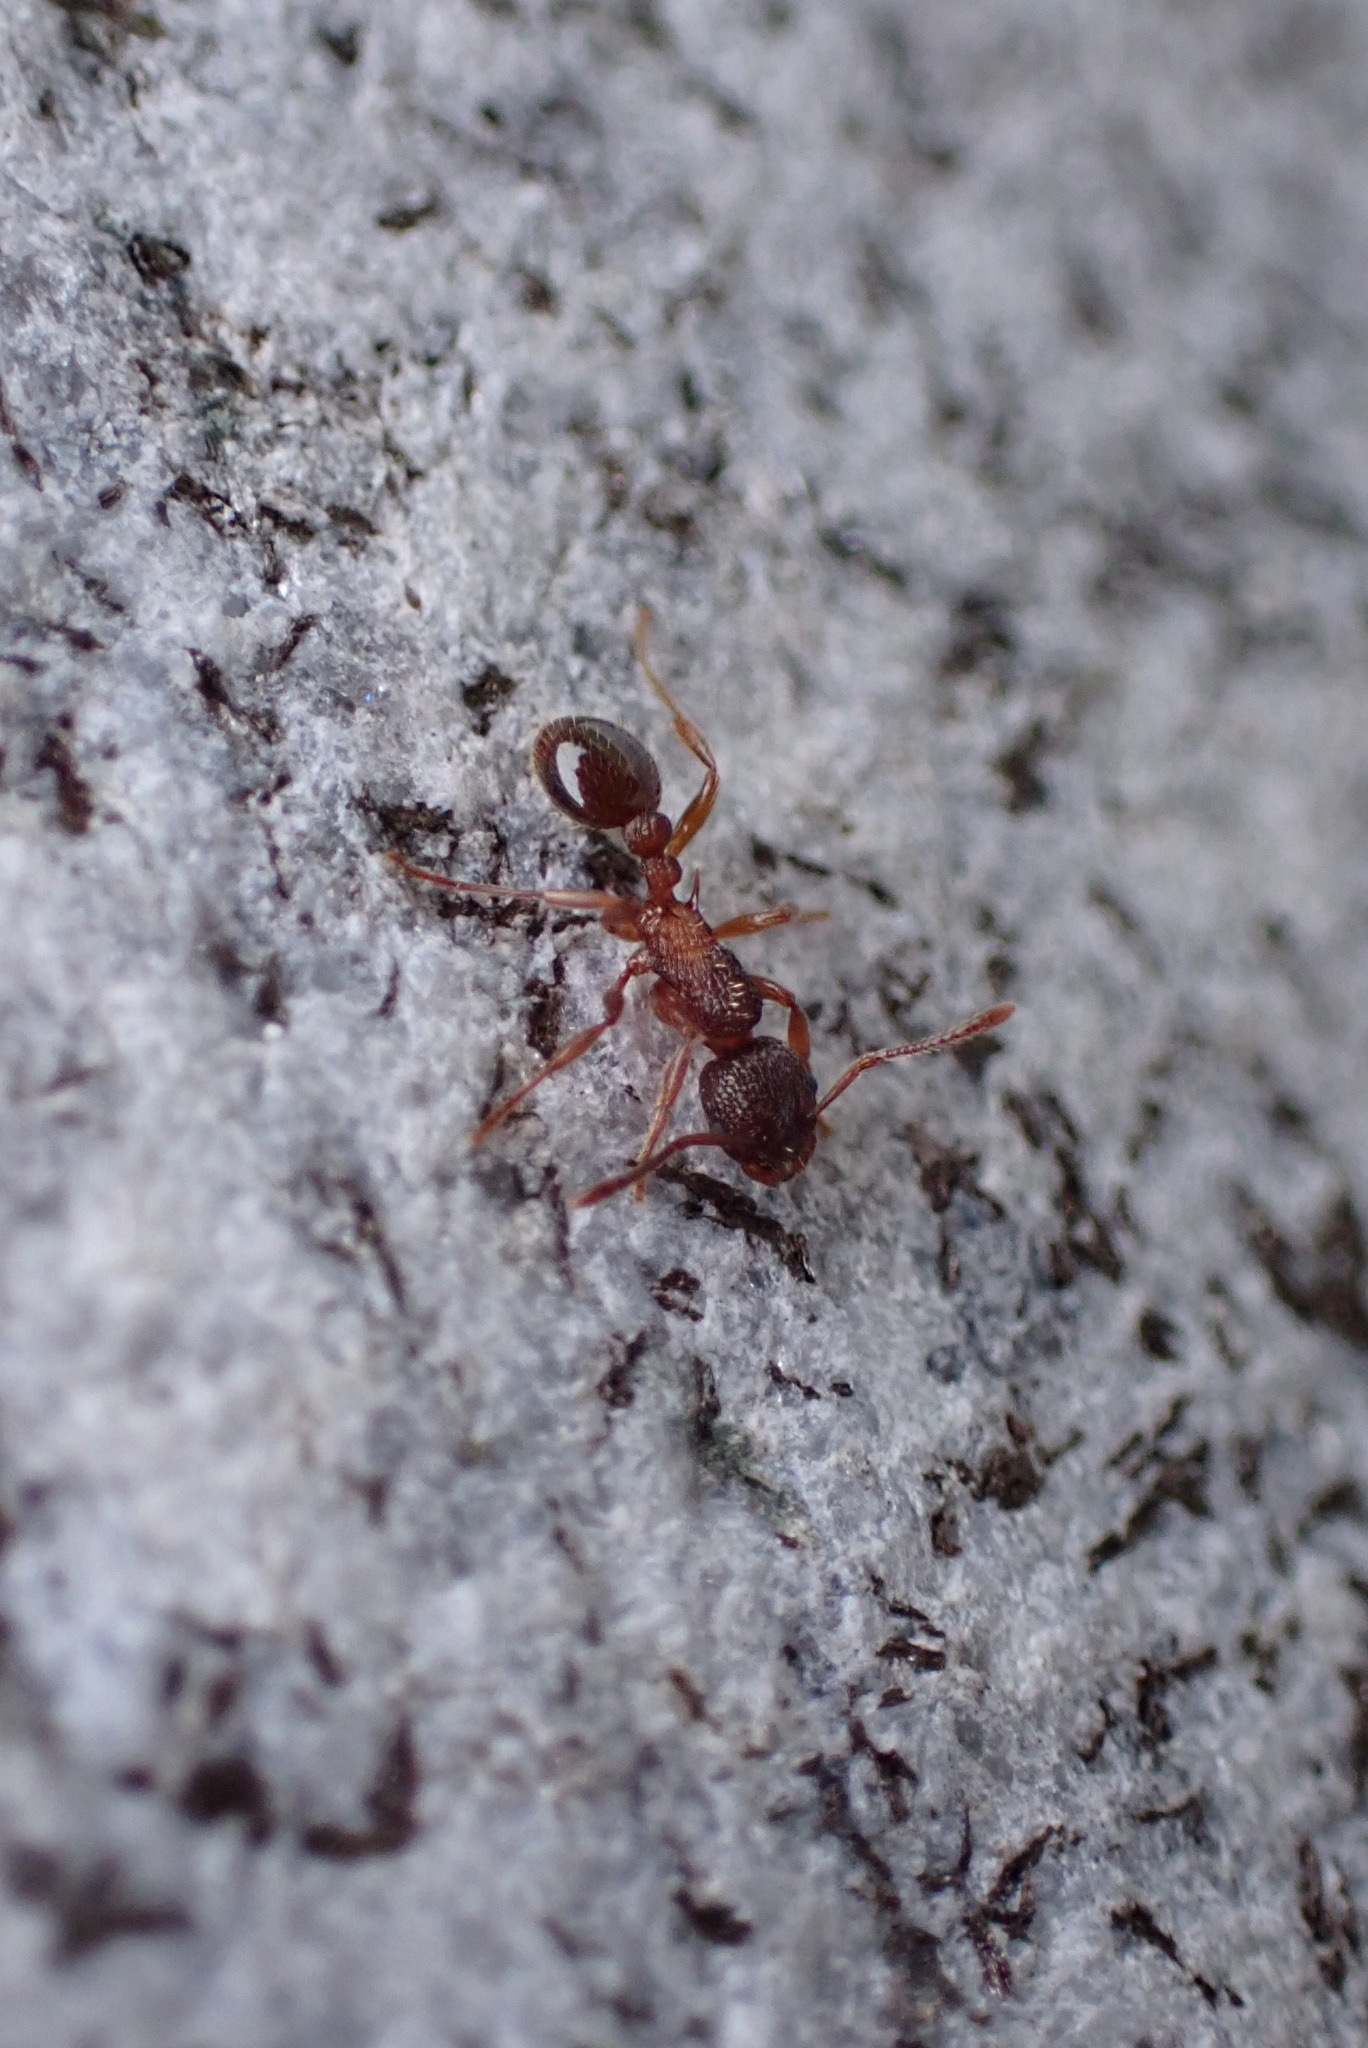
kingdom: Animalia
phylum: Arthropoda
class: Insecta
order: Hymenoptera
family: Formicidae
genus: Myrmica
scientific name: Myrmica
